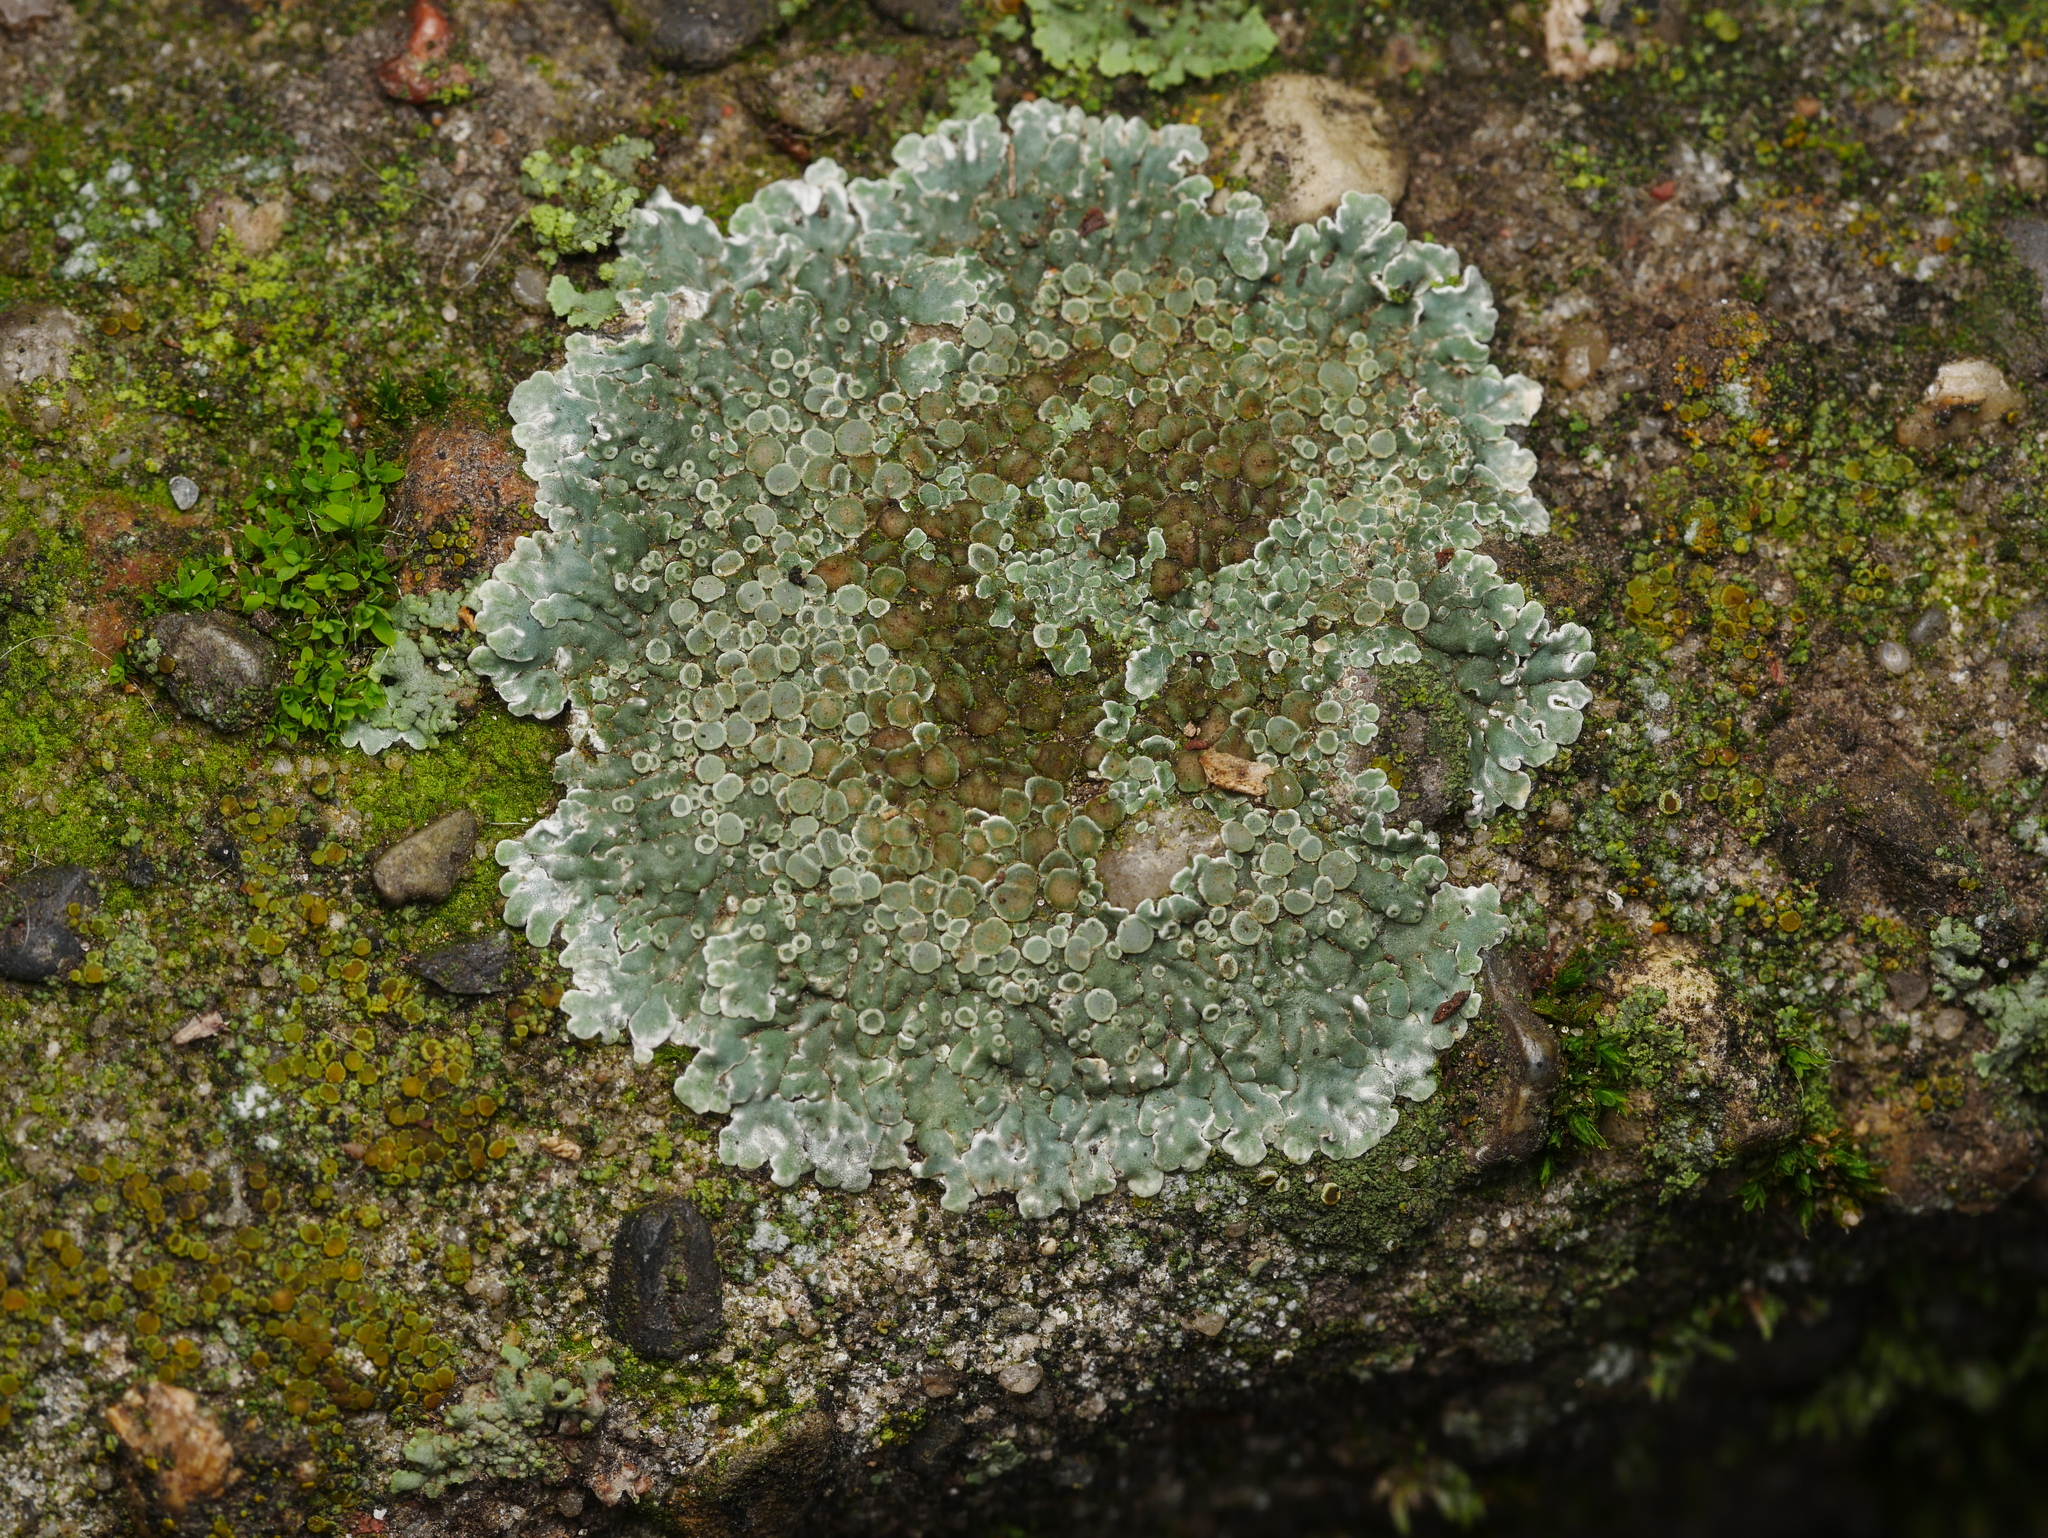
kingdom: Fungi
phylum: Ascomycota
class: Lecanoromycetes
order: Lecanorales
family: Lecanoraceae
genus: Protoparmeliopsis
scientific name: Protoparmeliopsis muralis
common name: Stonewall rim lichen
